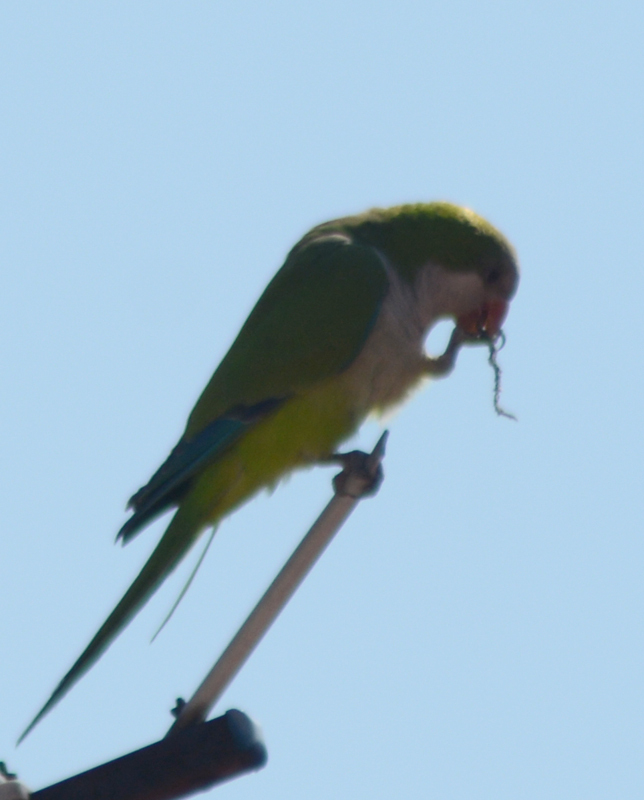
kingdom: Animalia
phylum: Chordata
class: Aves
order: Psittaciformes
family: Psittacidae
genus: Myiopsitta
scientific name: Myiopsitta monachus
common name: Monk parakeet
